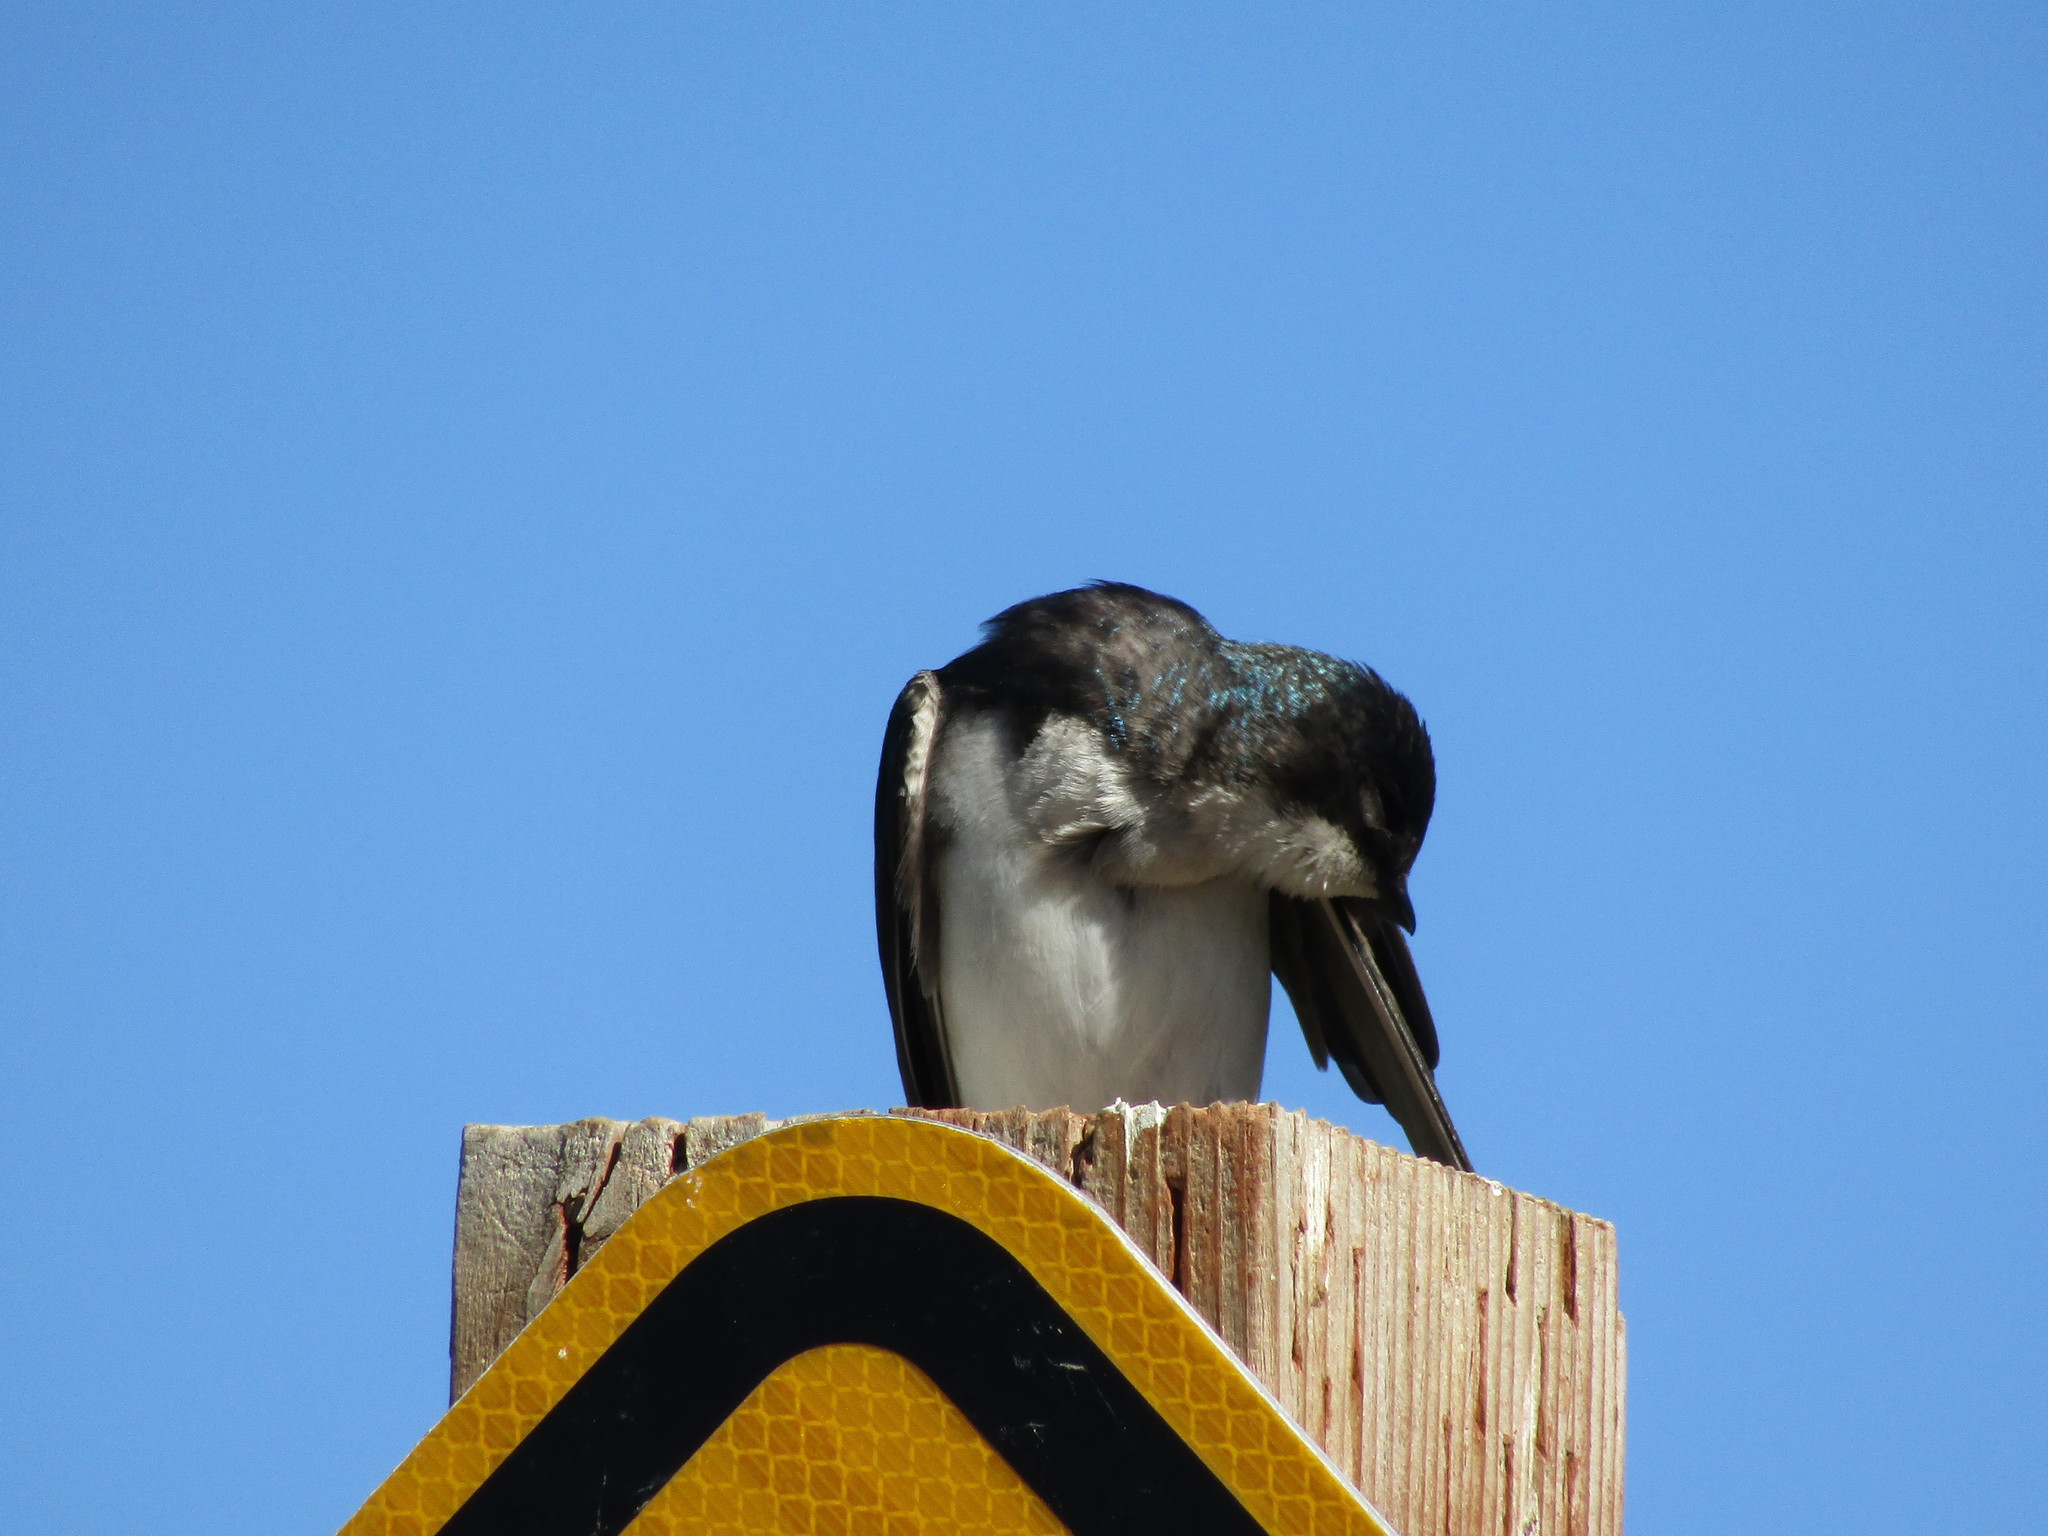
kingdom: Animalia
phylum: Chordata
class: Aves
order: Passeriformes
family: Hirundinidae
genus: Tachycineta
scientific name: Tachycineta bicolor
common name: Tree swallow
